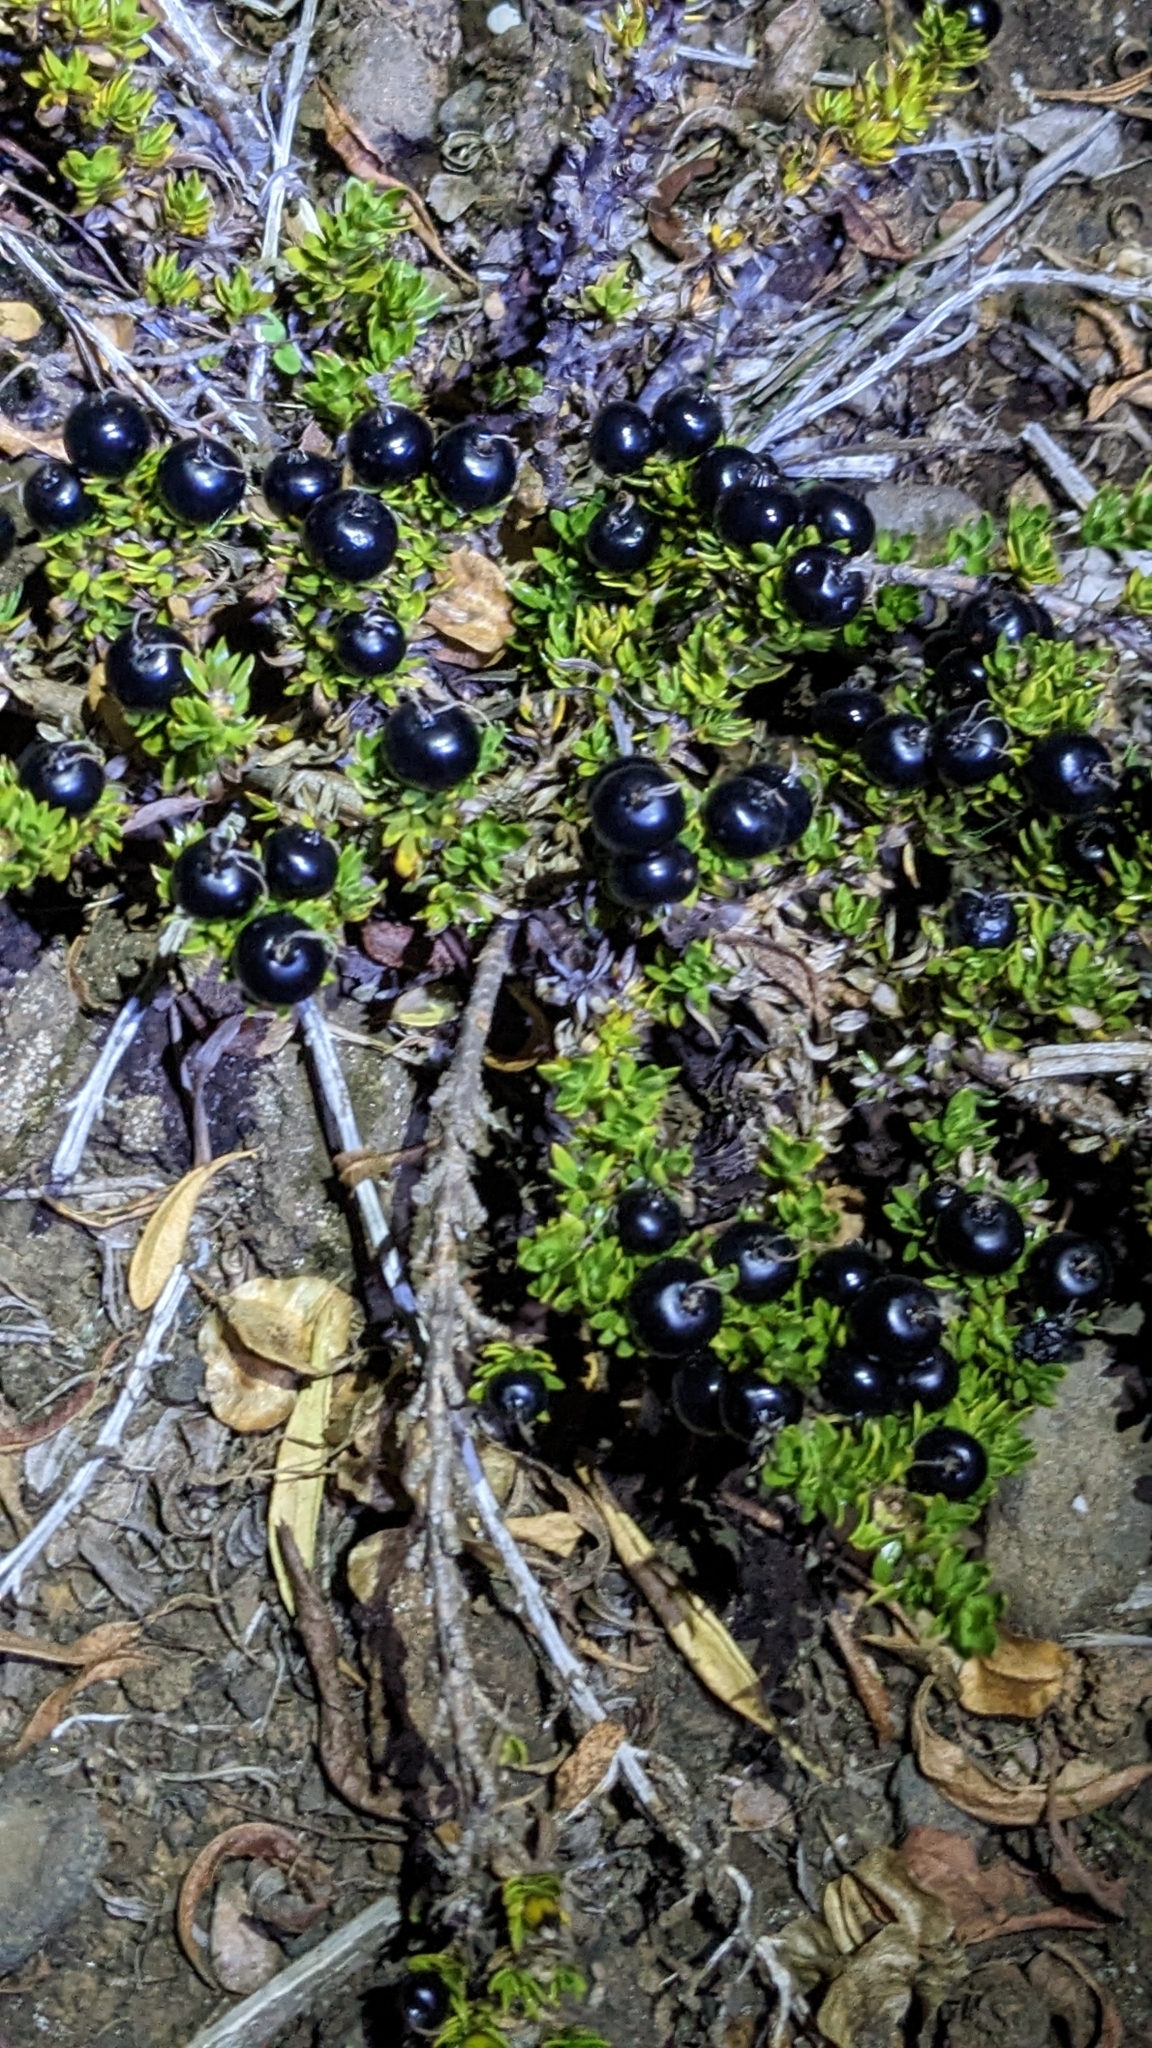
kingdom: Plantae
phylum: Tracheophyta
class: Magnoliopsida
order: Gentianales
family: Rubiaceae
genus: Coprosma
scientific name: Coprosma ernodeoides
